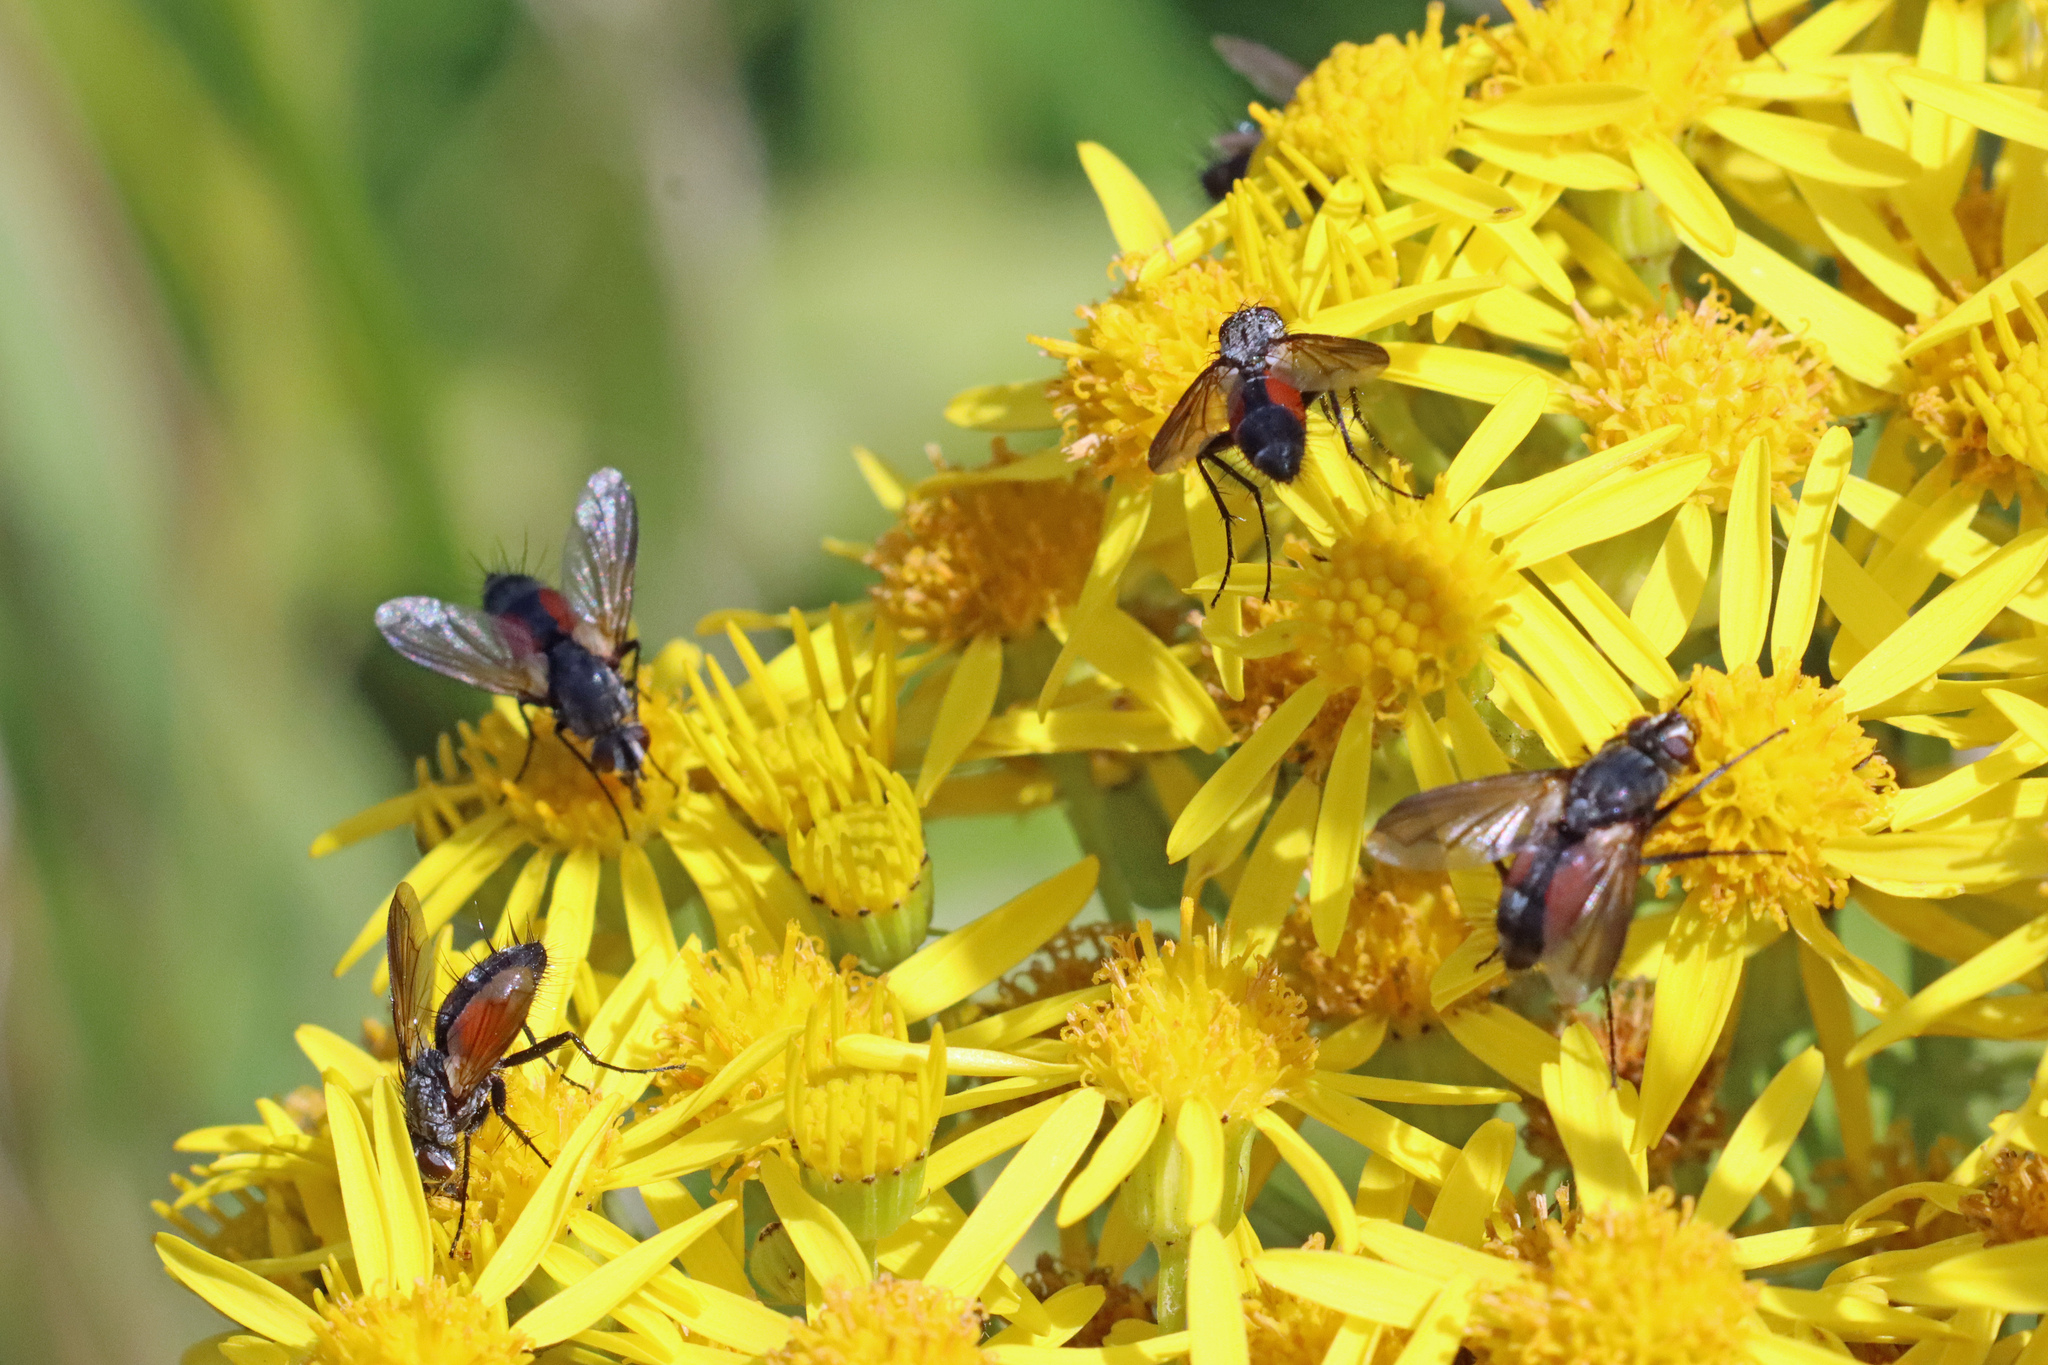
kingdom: Animalia
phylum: Arthropoda
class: Insecta
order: Diptera
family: Tachinidae
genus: Eriothrix
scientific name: Eriothrix rufomaculatus
